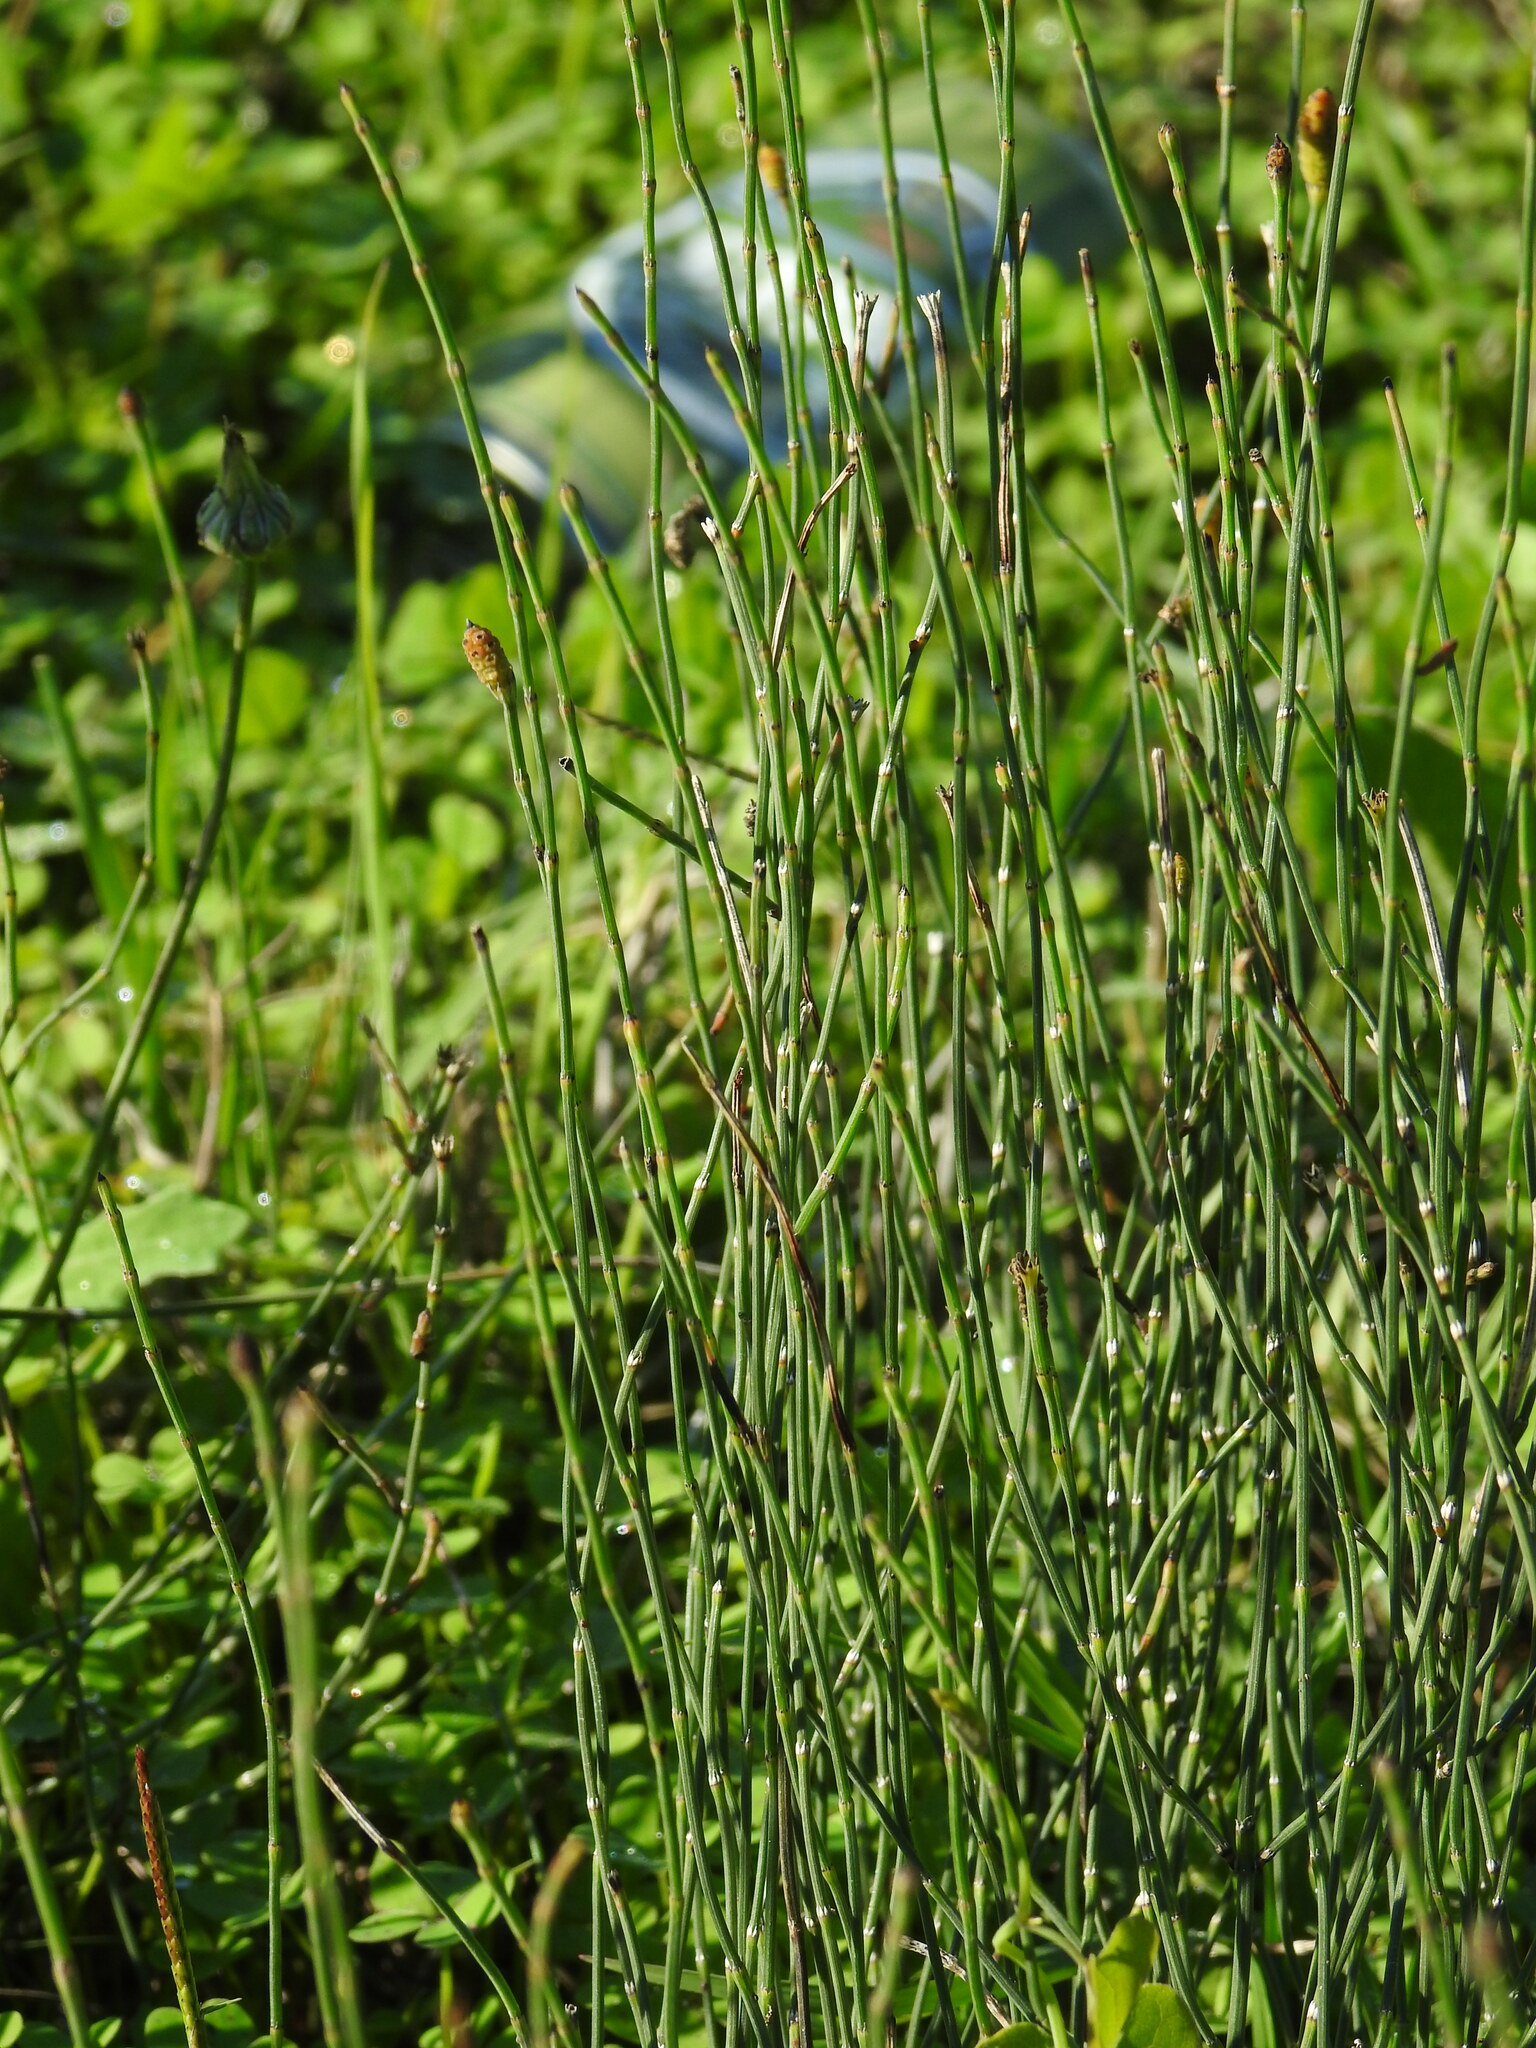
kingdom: Plantae
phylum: Tracheophyta
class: Polypodiopsida
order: Equisetales
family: Equisetaceae
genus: Equisetum
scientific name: Equisetum ramosissimum
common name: Branched horsetail
